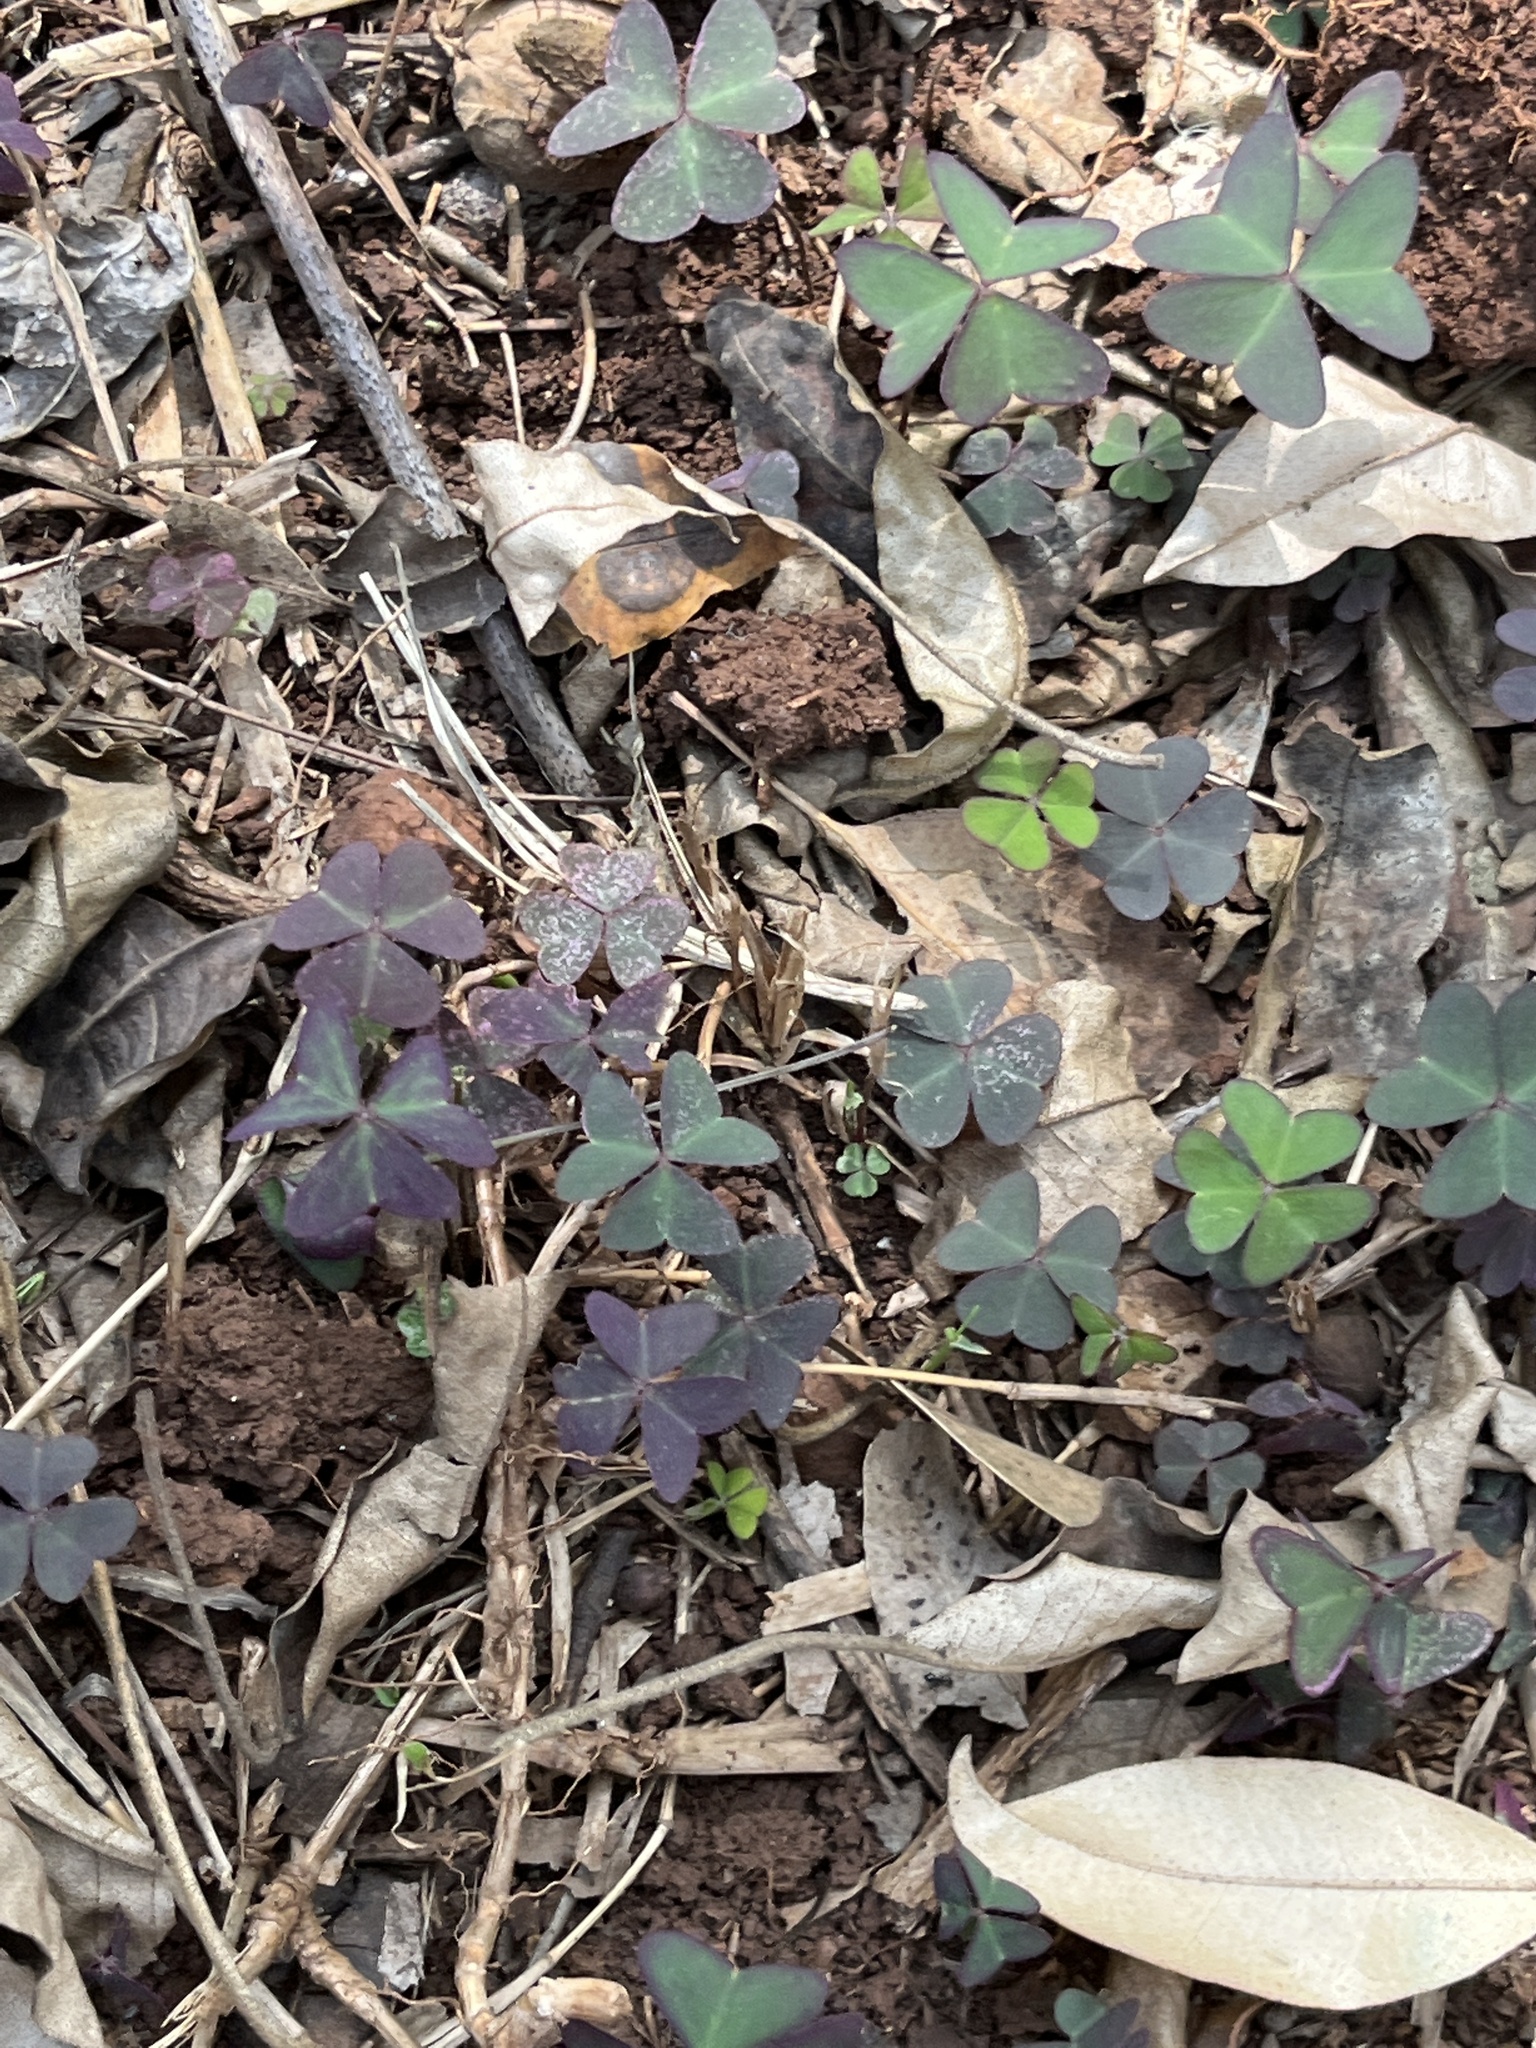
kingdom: Plantae
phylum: Tracheophyta
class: Magnoliopsida
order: Oxalidales
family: Oxalidaceae
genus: Oxalis
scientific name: Oxalis corniculata
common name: Procumbent yellow-sorrel
